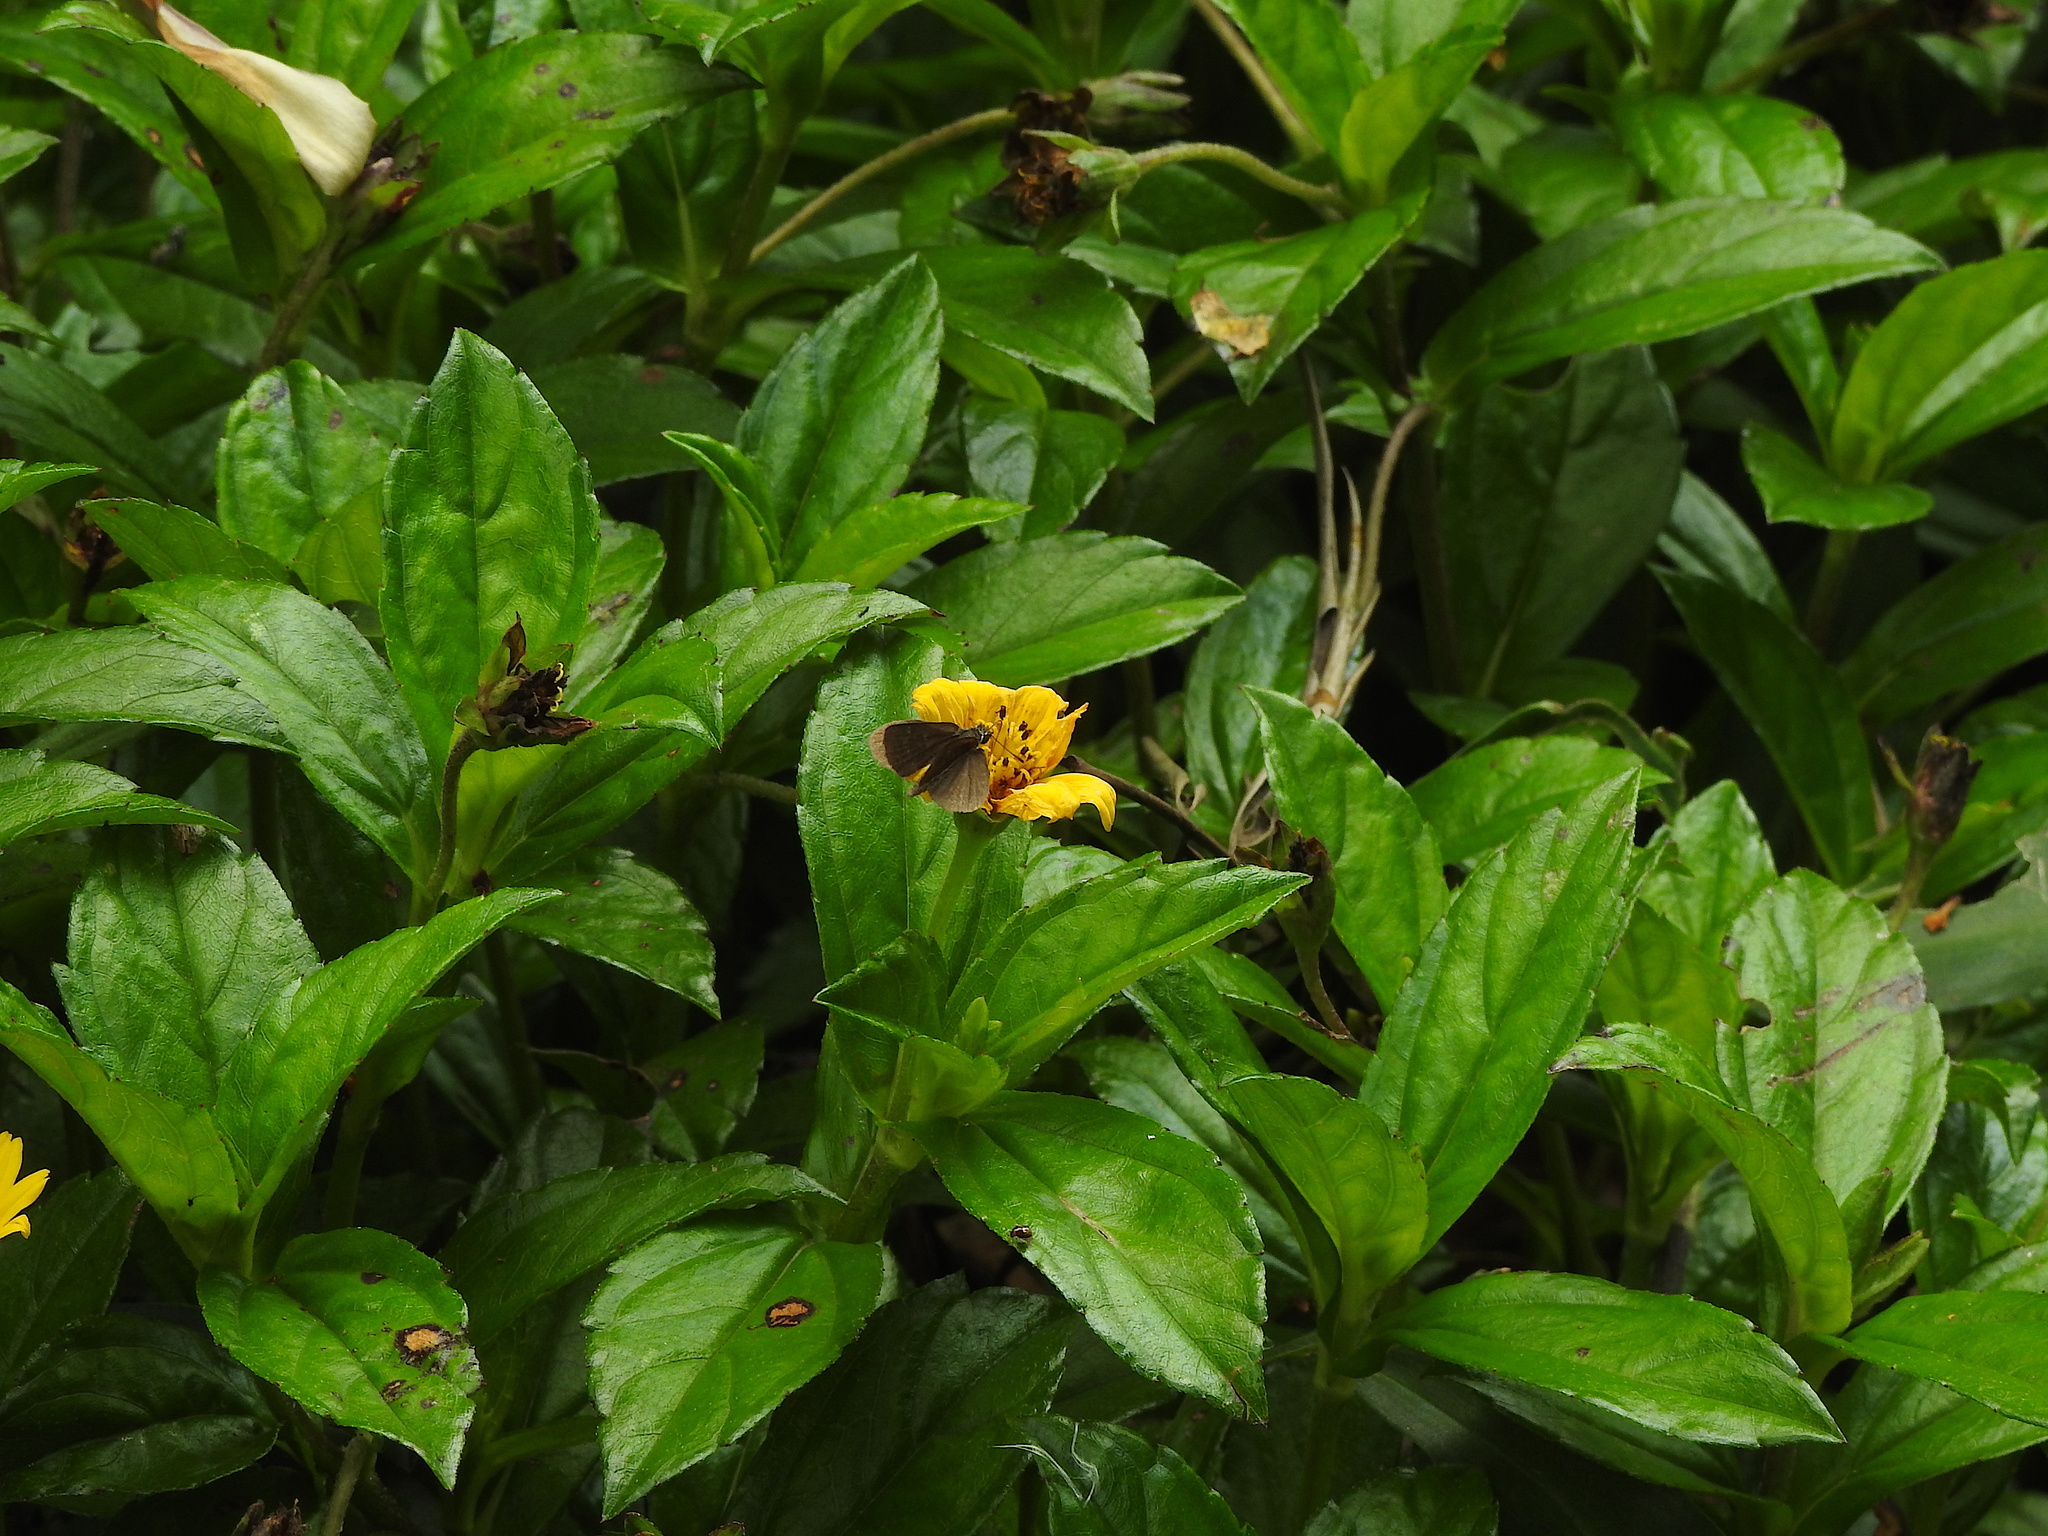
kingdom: Animalia
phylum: Arthropoda
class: Insecta
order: Lepidoptera
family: Hesperiidae
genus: Aeromachus
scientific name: Aeromachus pygmaeus
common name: Pygmy scrub hopper
